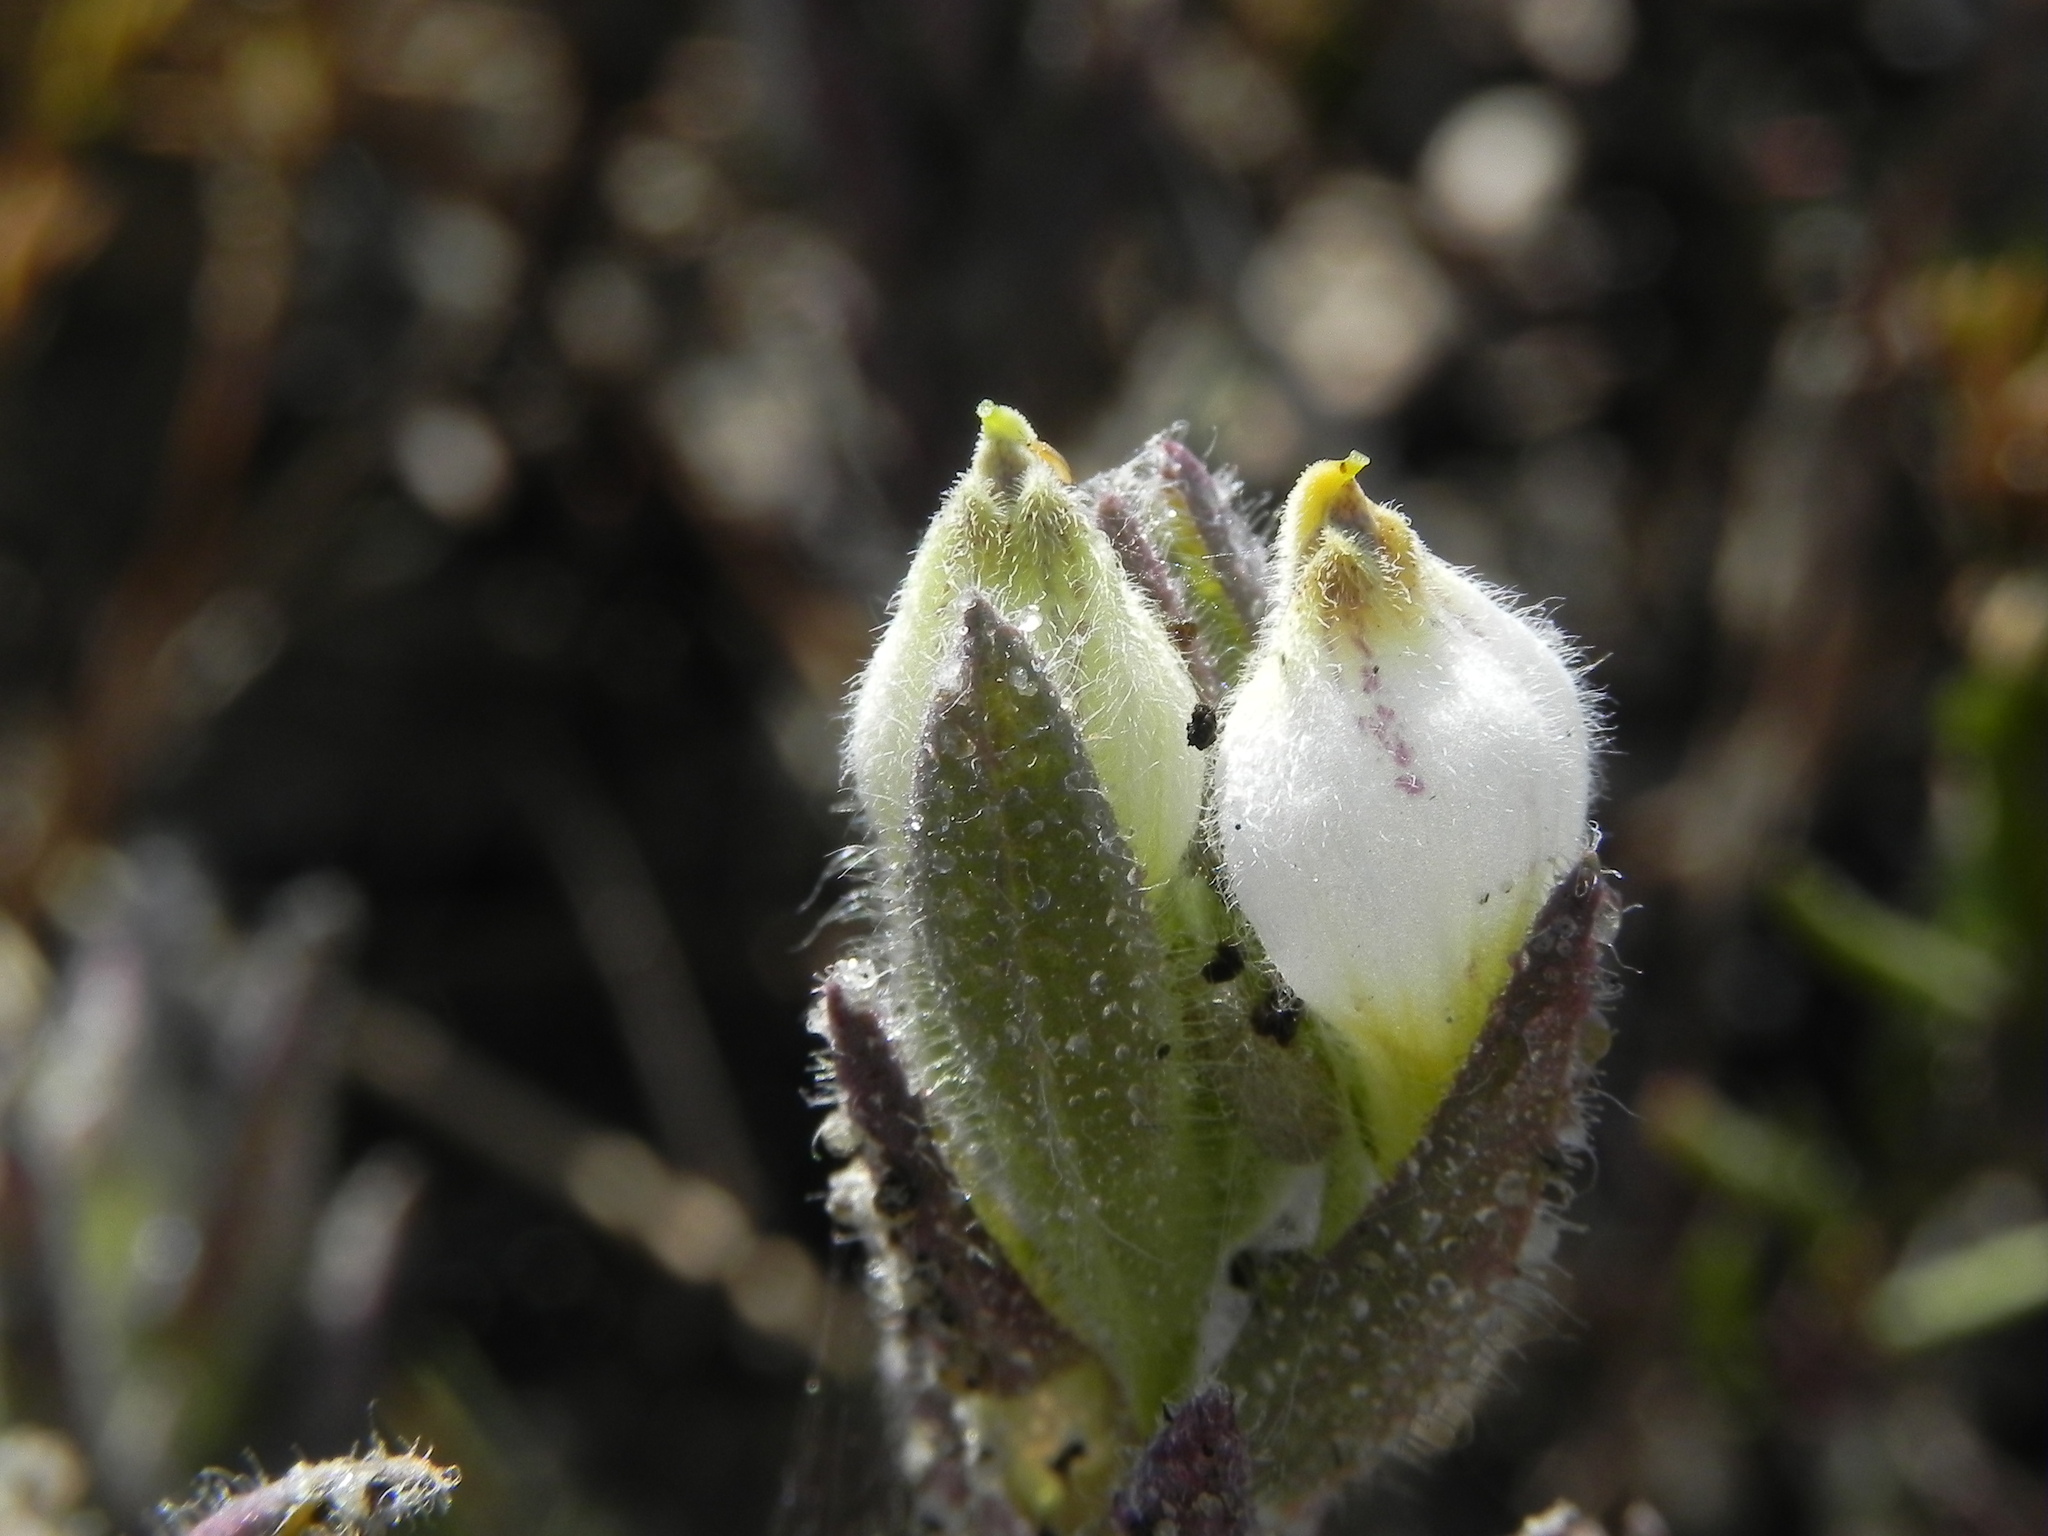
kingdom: Plantae
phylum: Tracheophyta
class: Magnoliopsida
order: Lamiales
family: Orobanchaceae
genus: Chloropyron
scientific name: Chloropyron maritimum
